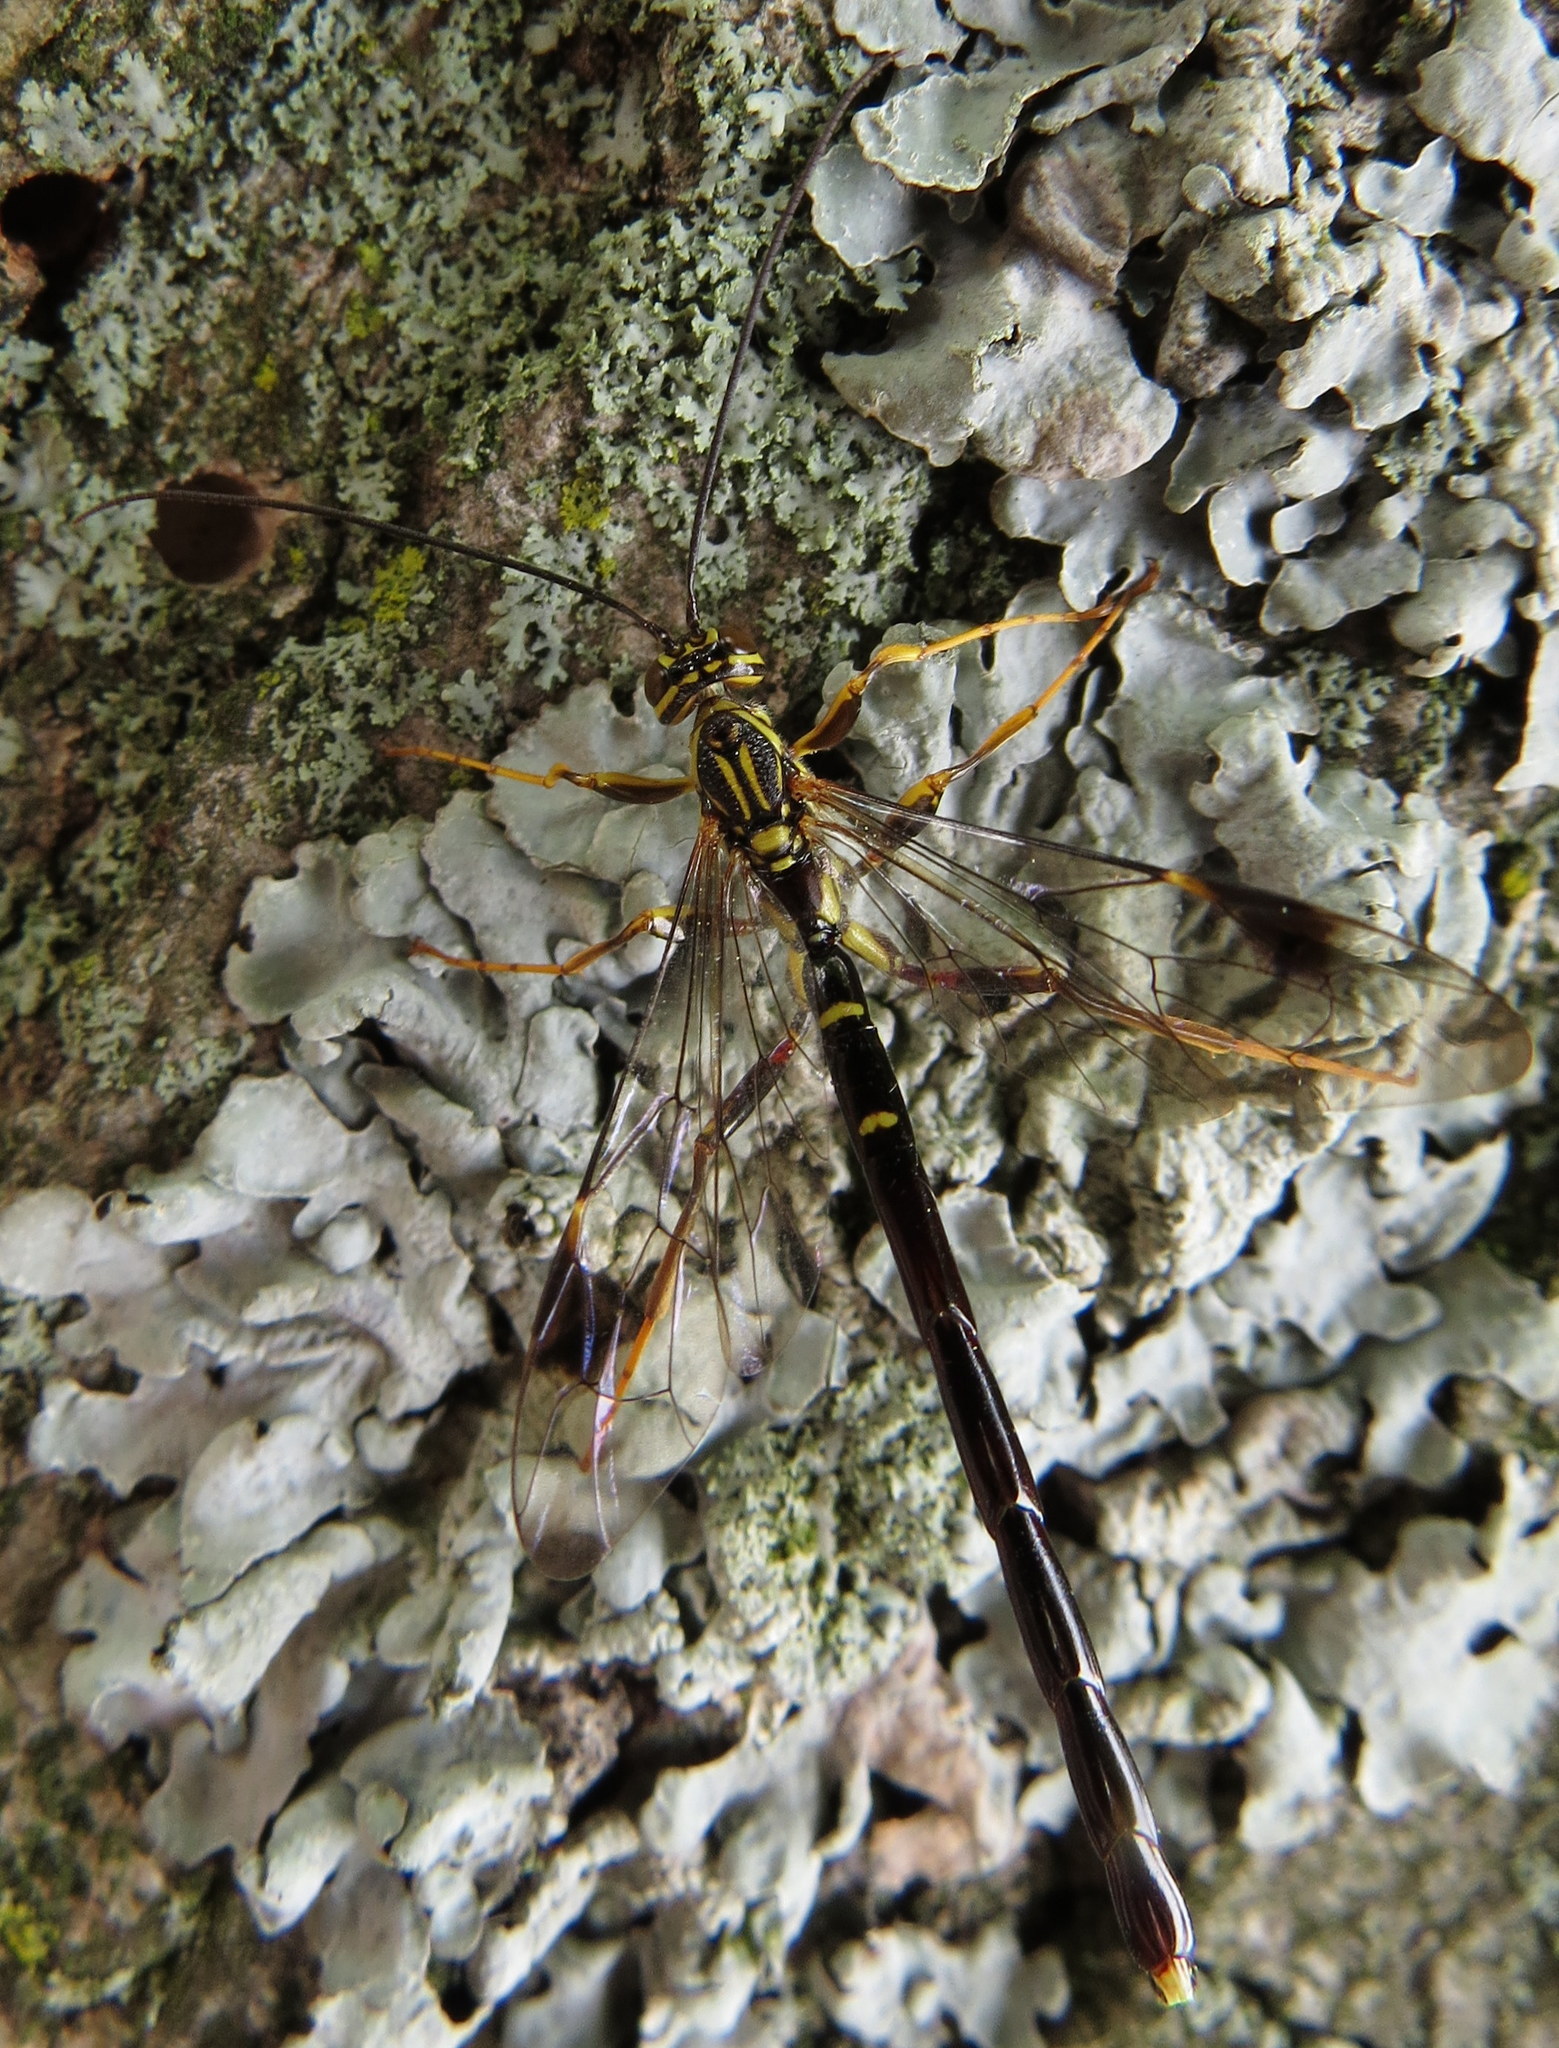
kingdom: Animalia
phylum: Arthropoda
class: Insecta
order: Hymenoptera
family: Ichneumonidae
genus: Megarhyssa
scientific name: Megarhyssa macrura
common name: Long-tailed giant ichneumonid wasp
